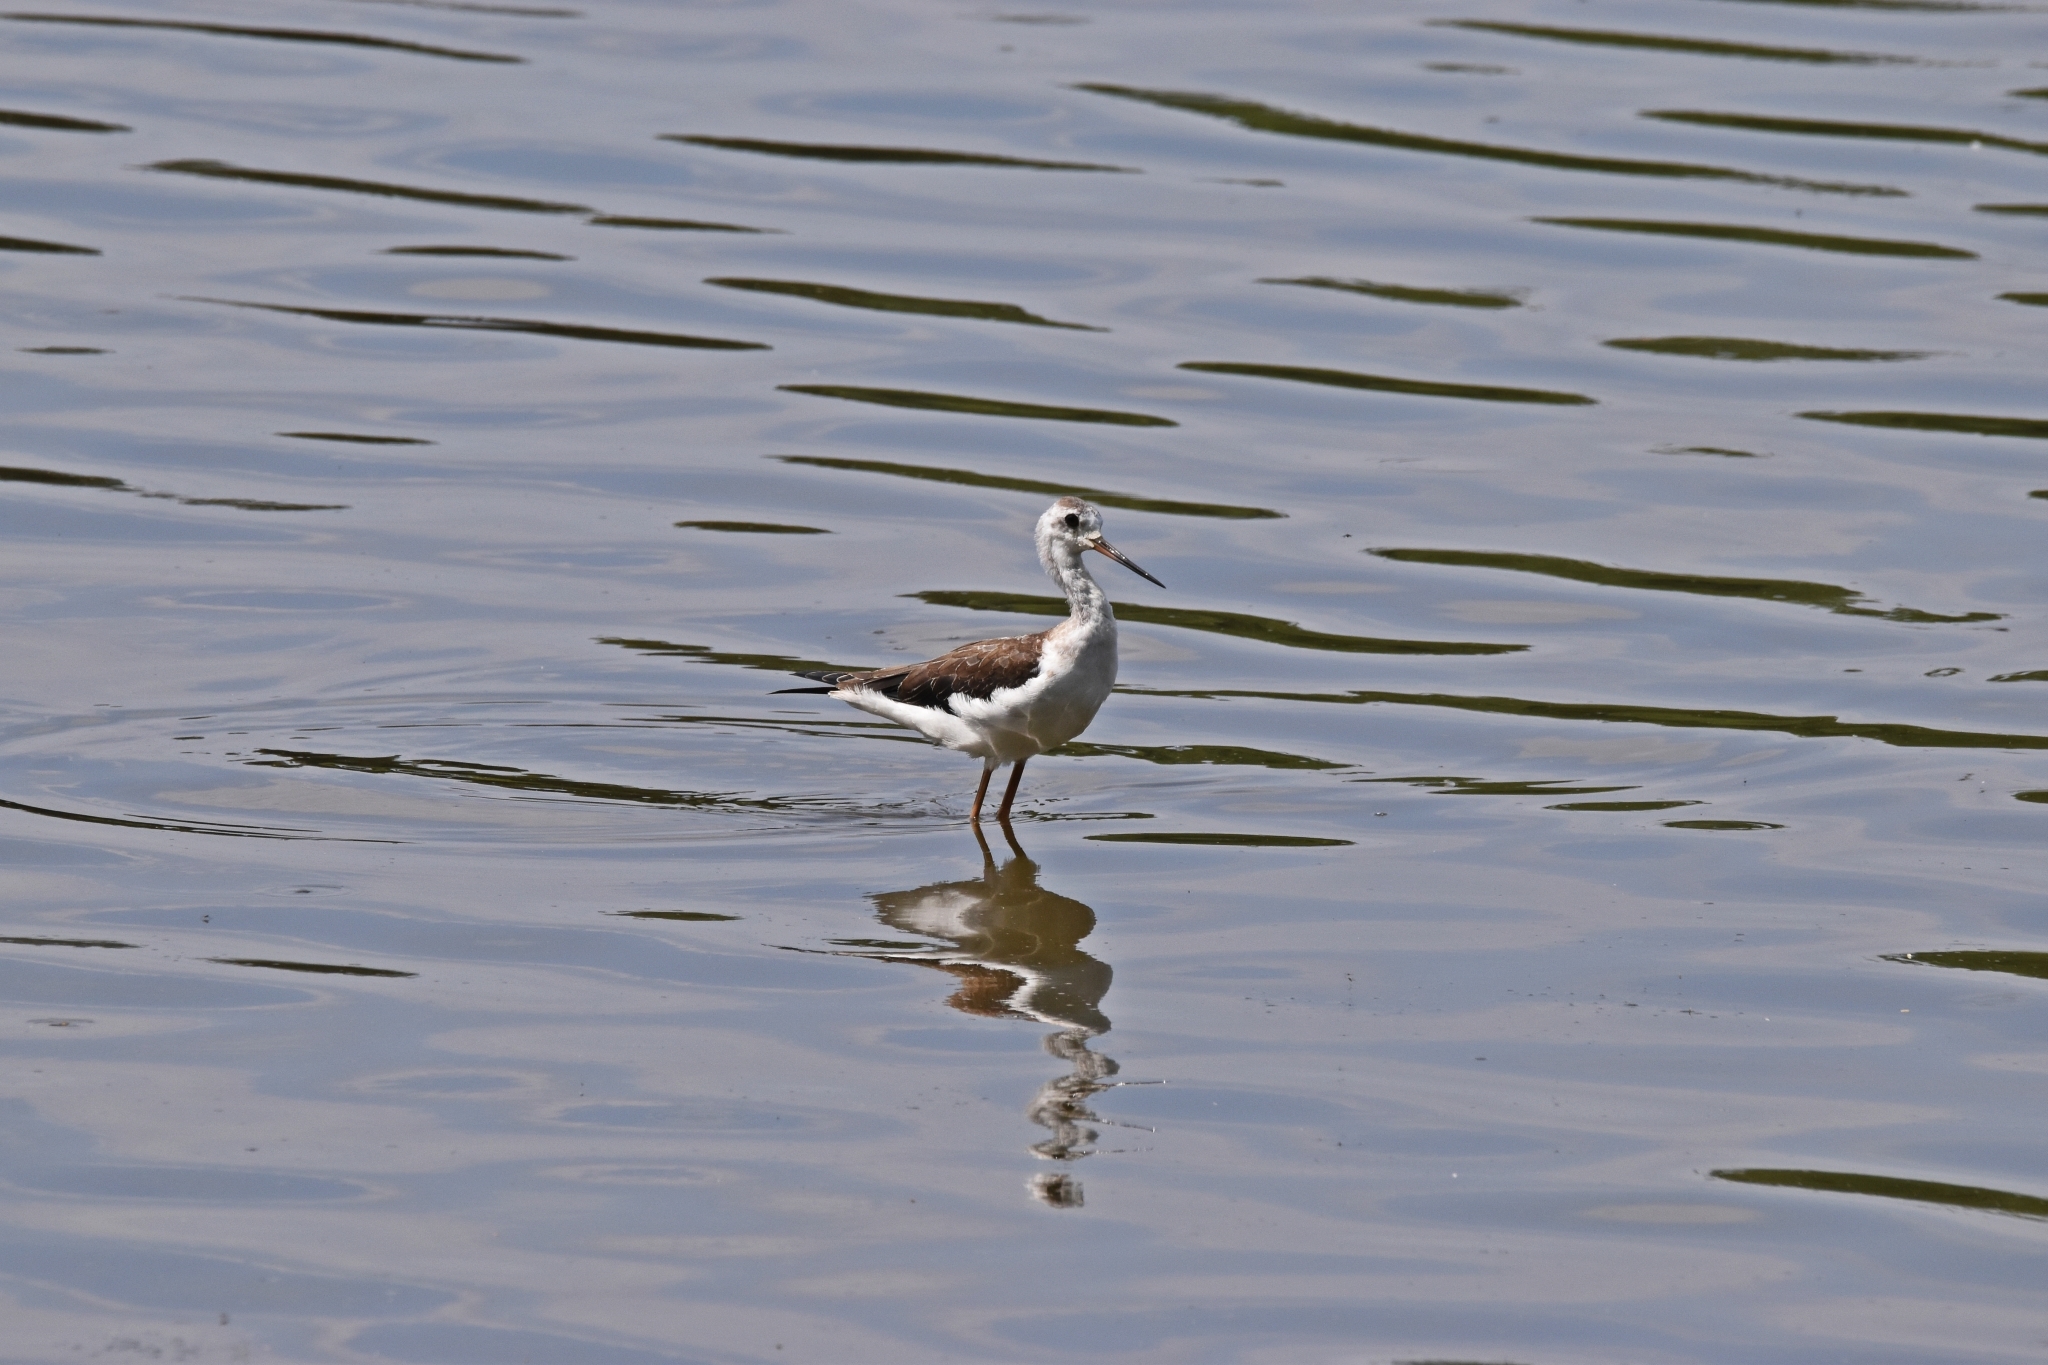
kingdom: Animalia
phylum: Chordata
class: Aves
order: Charadriiformes
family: Recurvirostridae
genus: Himantopus
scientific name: Himantopus himantopus
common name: Black-winged stilt
